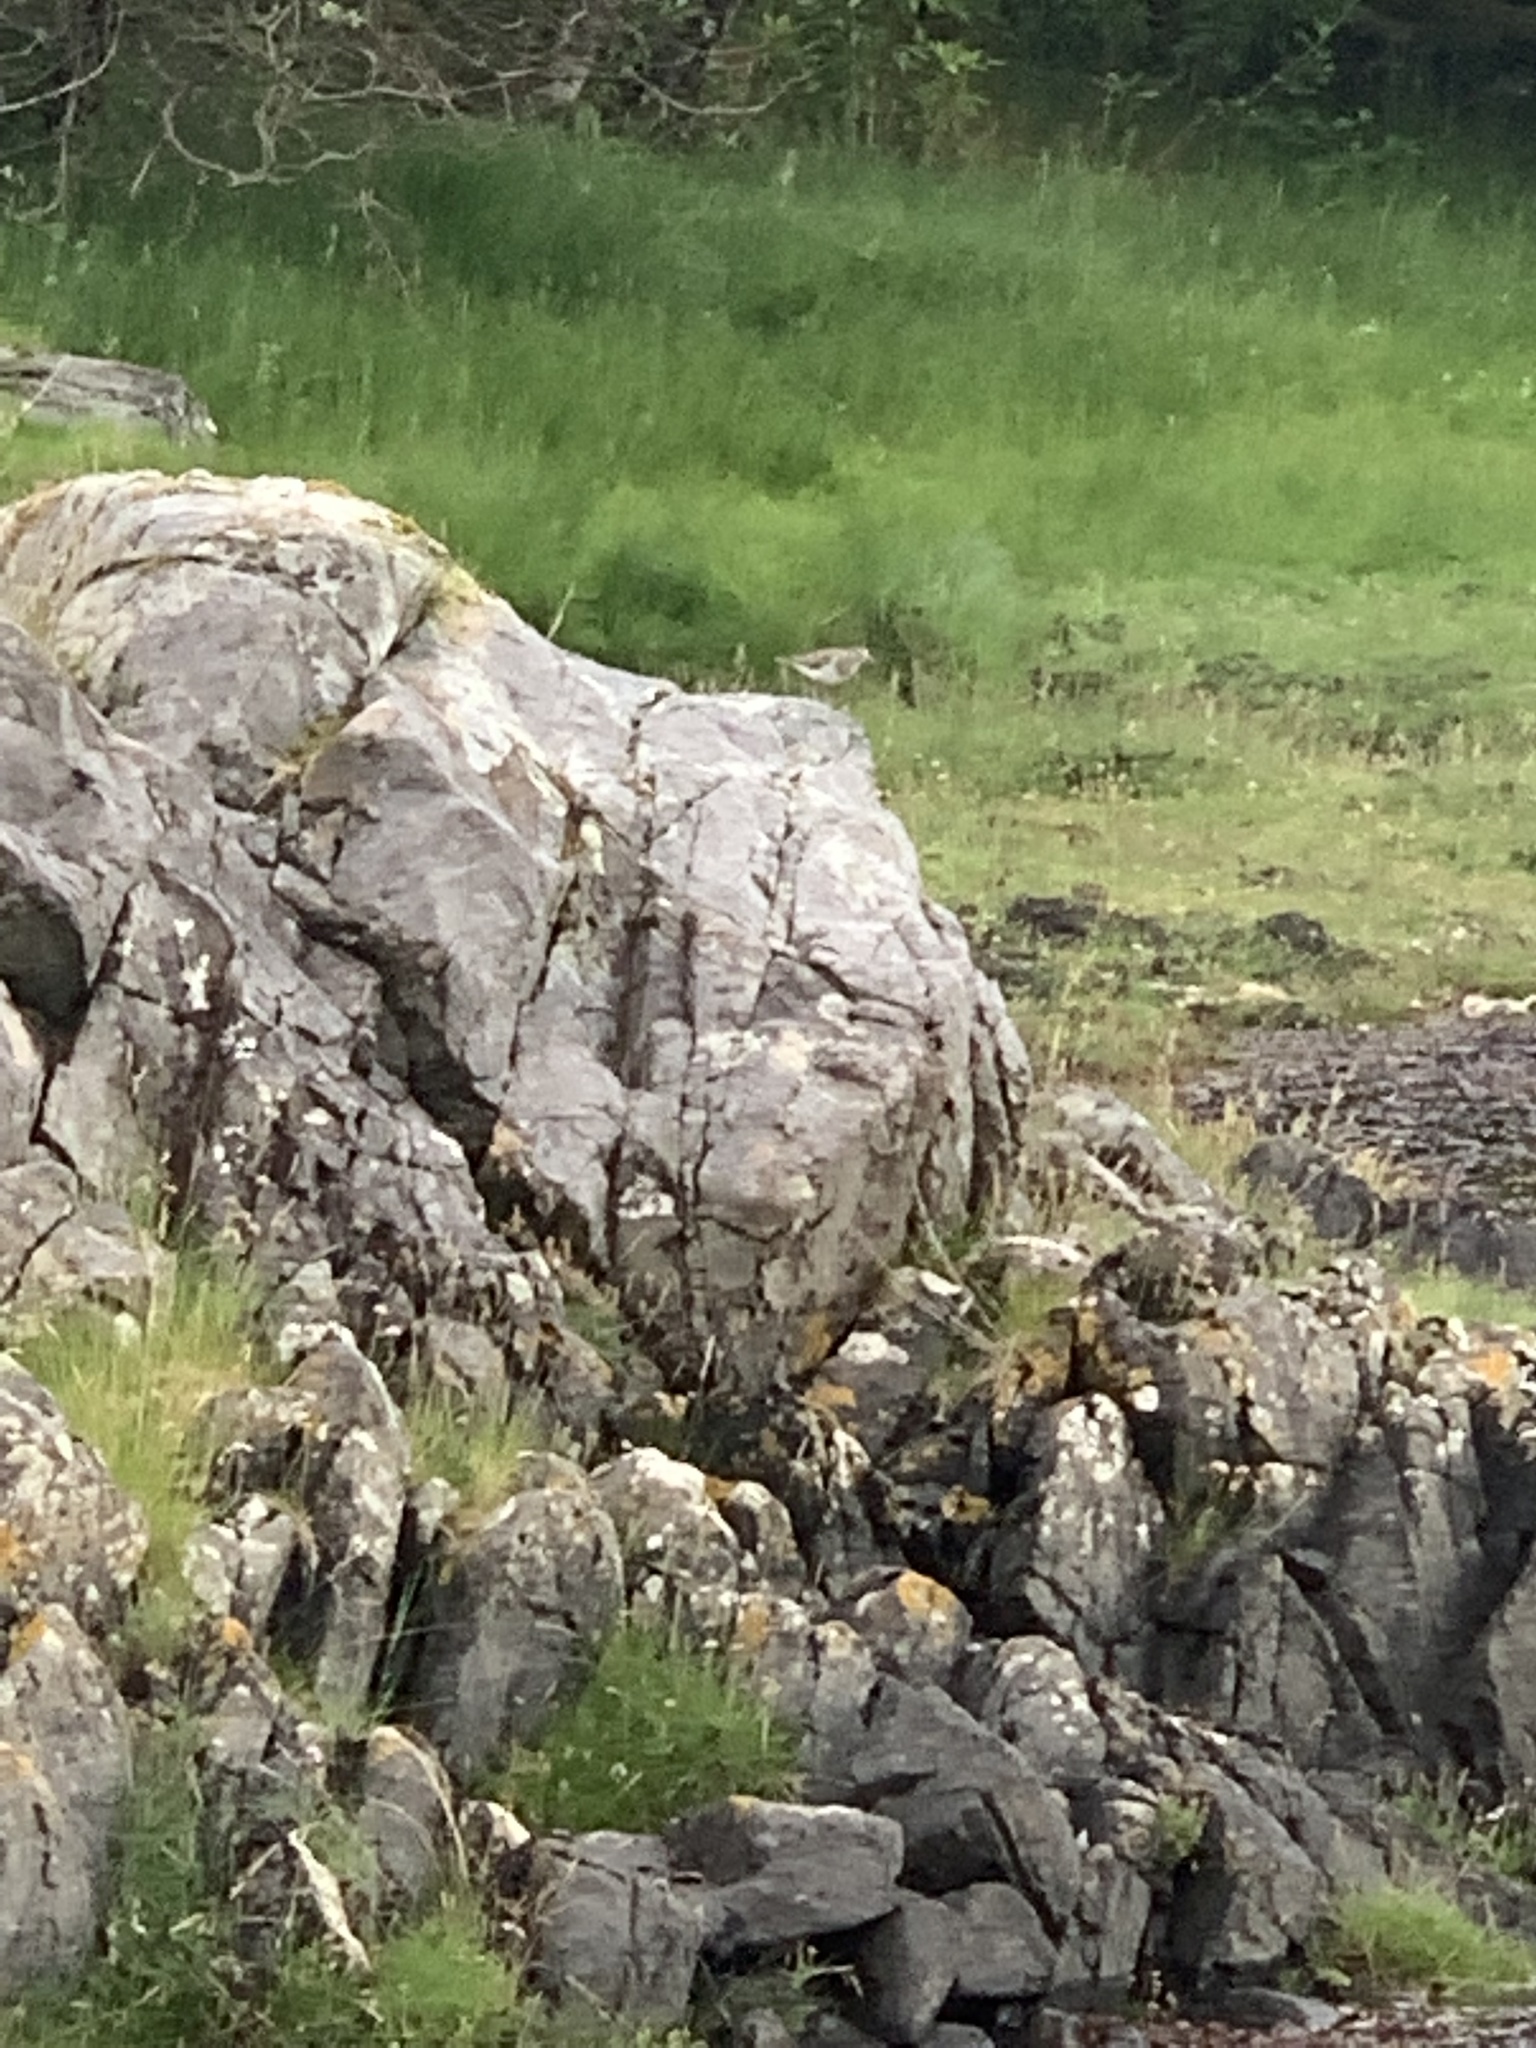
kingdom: Animalia
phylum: Chordata
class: Aves
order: Charadriiformes
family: Scolopacidae
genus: Actitis
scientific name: Actitis hypoleucos
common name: Common sandpiper
